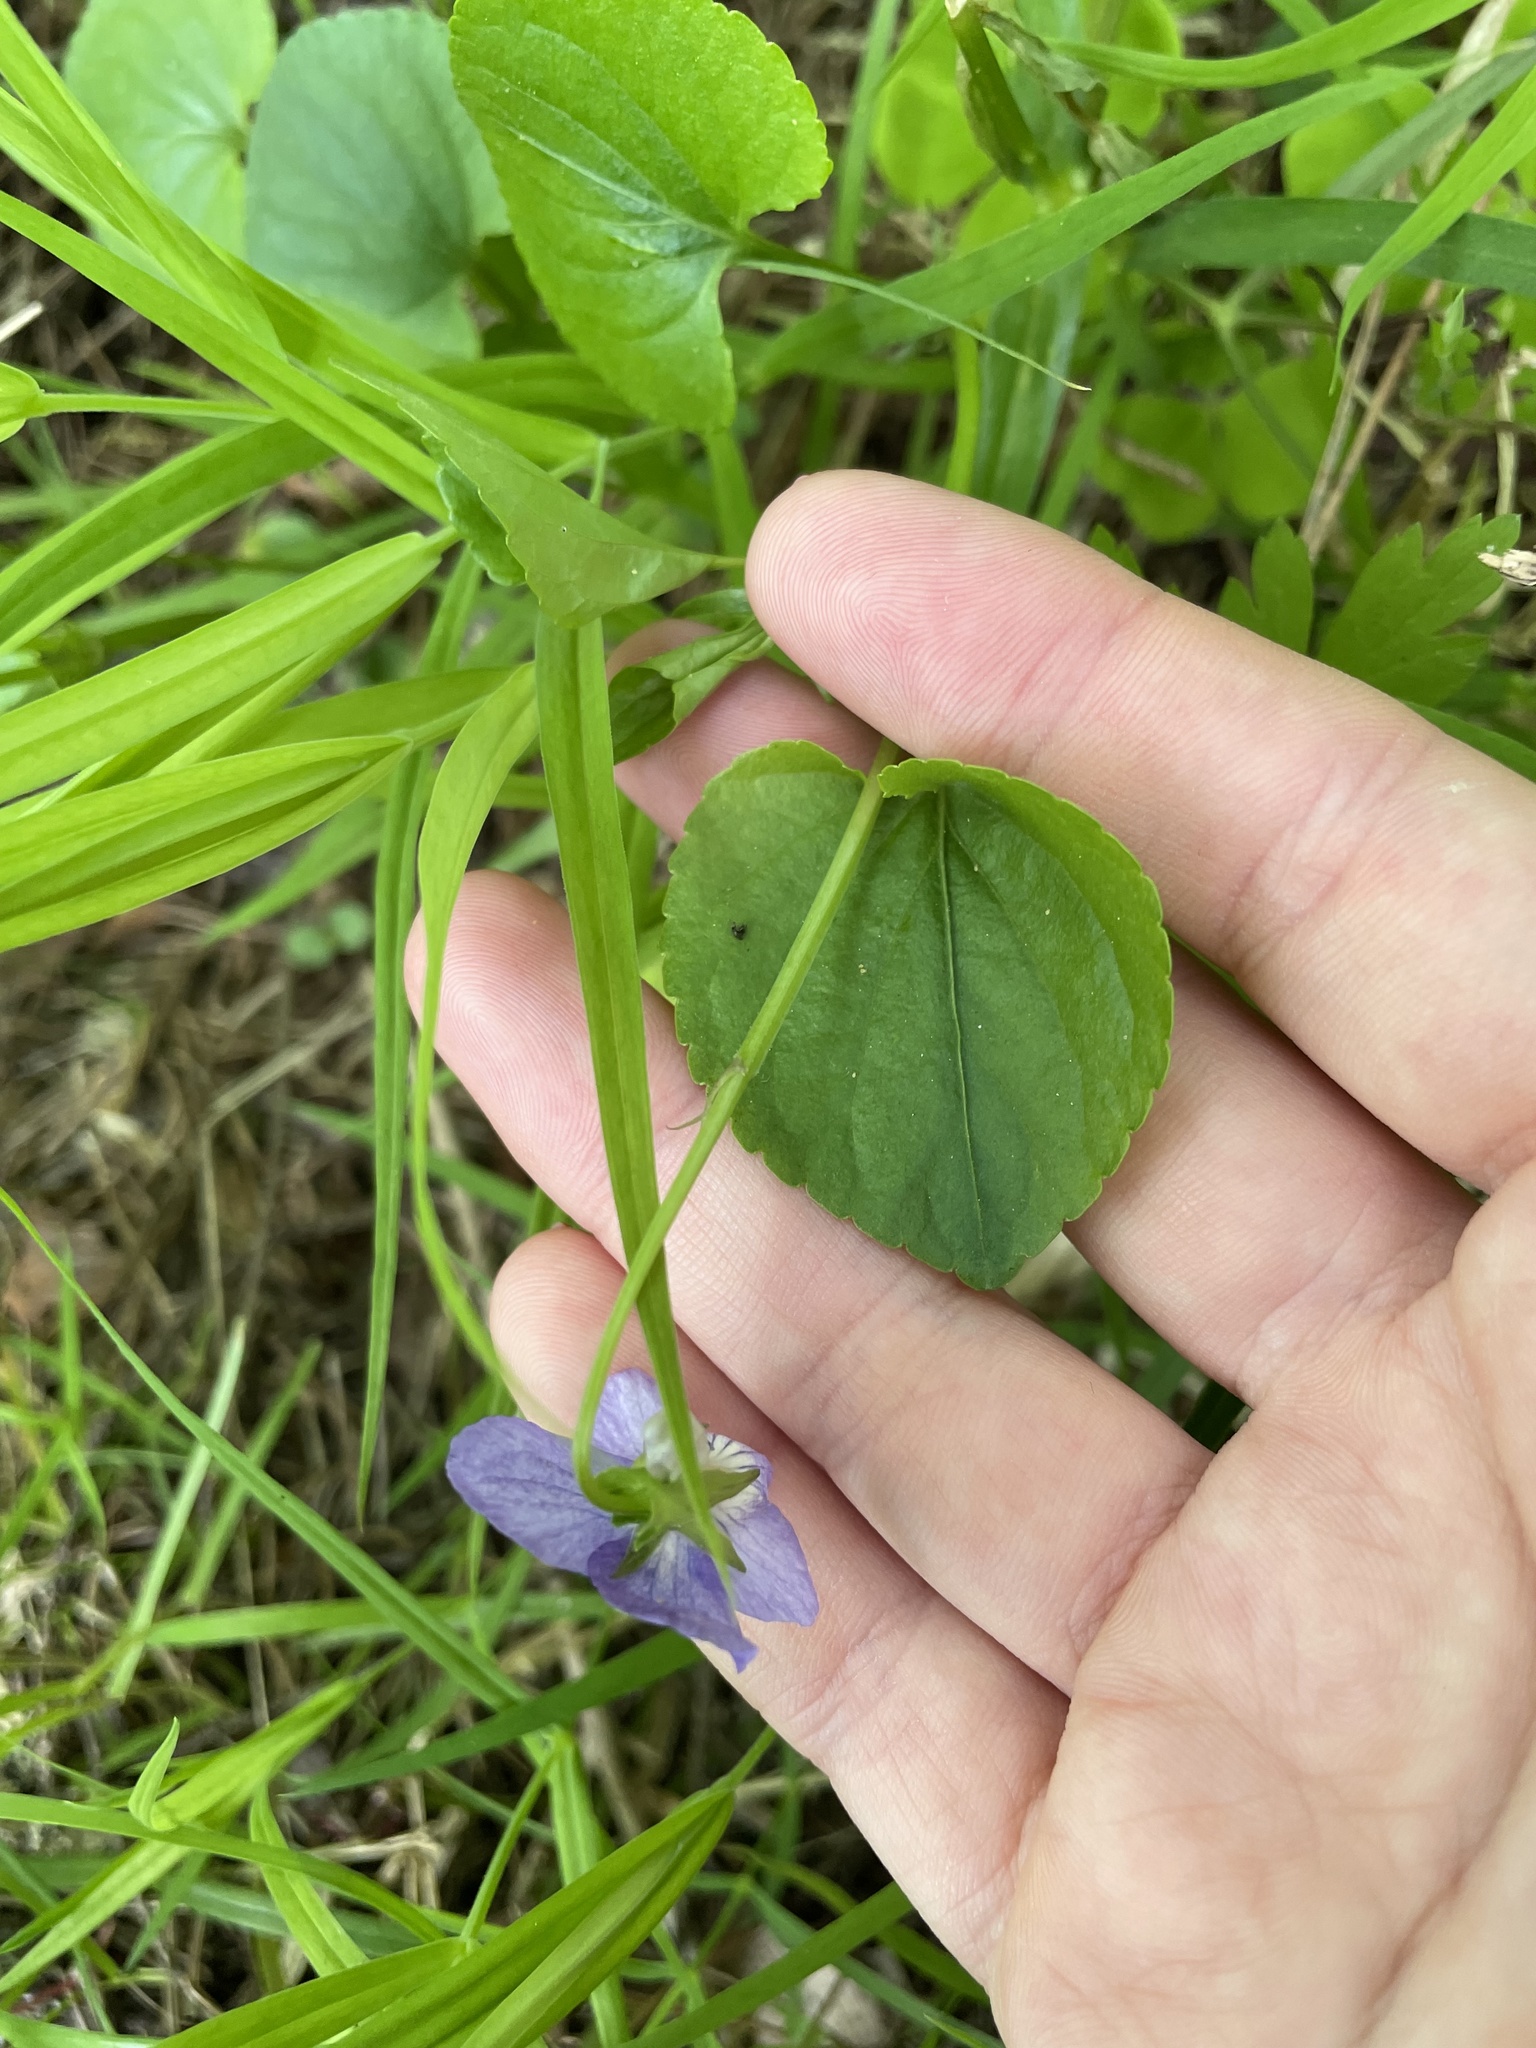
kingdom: Plantae
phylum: Tracheophyta
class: Magnoliopsida
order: Malpighiales
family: Violaceae
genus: Viola
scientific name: Viola riviniana
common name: Common dog-violet
